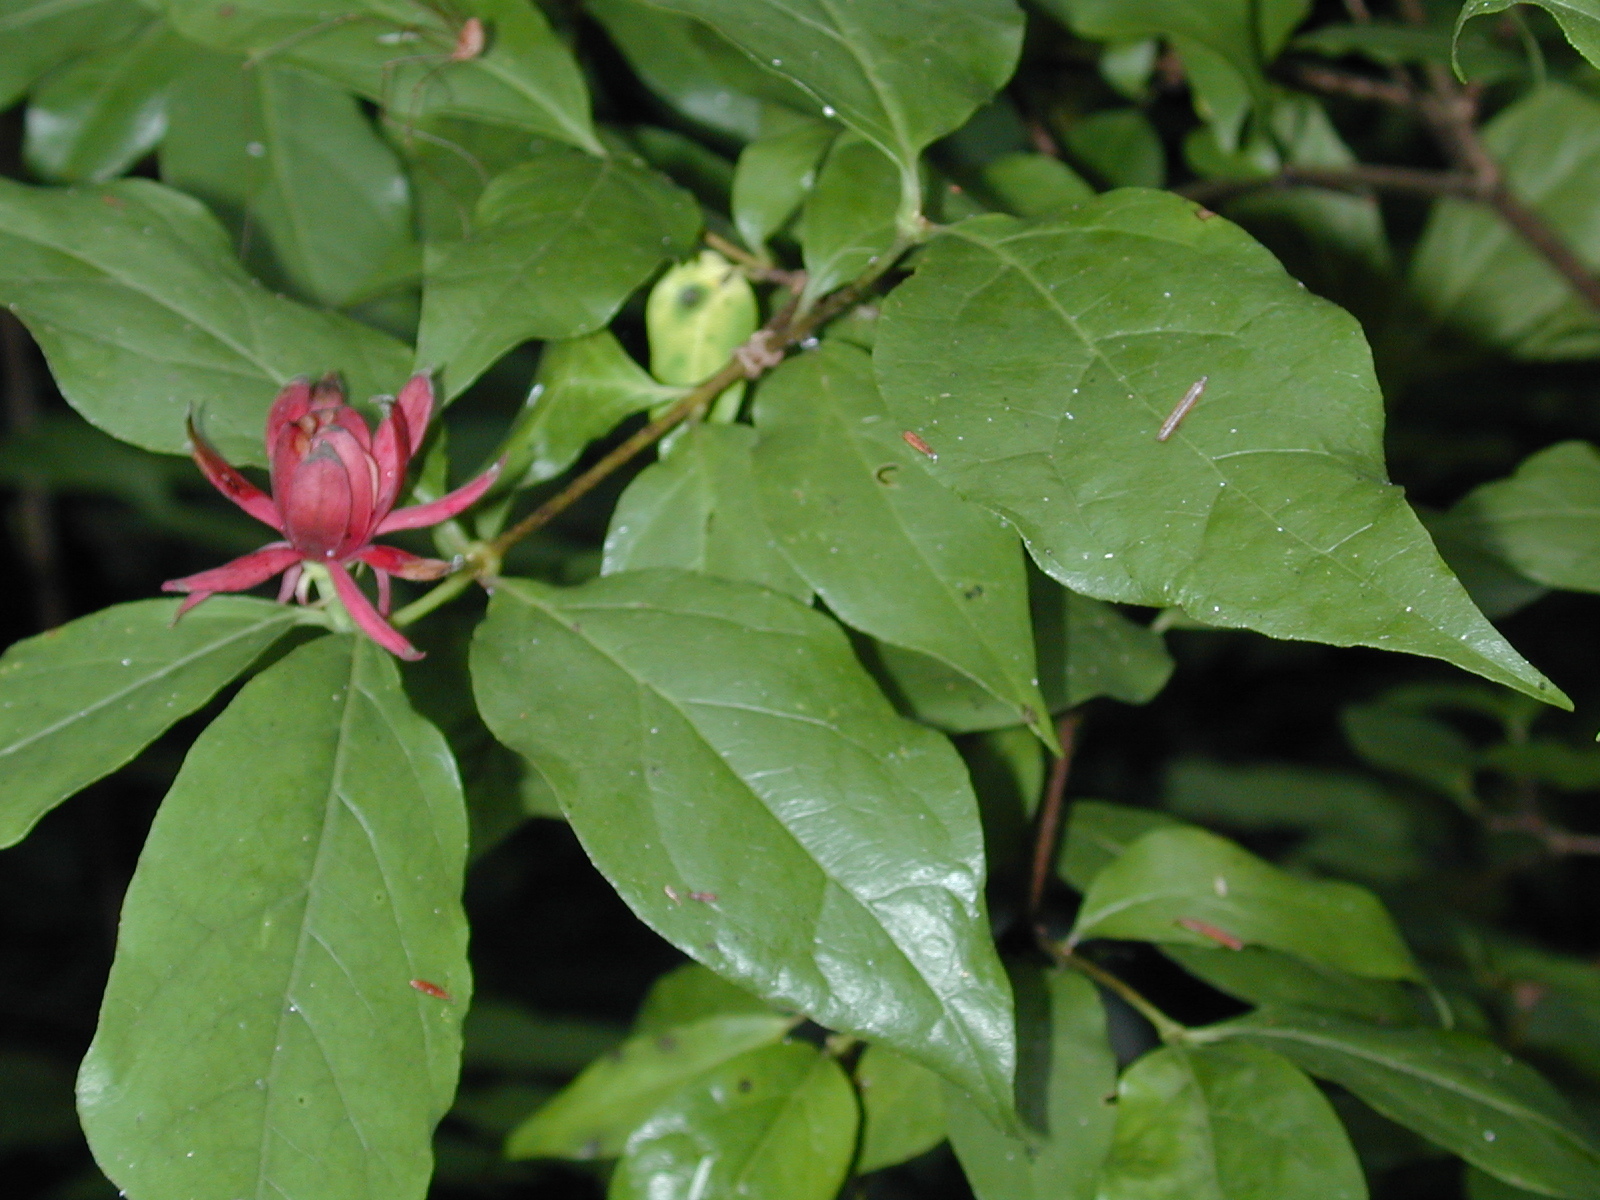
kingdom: Plantae
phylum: Tracheophyta
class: Magnoliopsida
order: Laurales
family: Calycanthaceae
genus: Calycanthus
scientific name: Calycanthus floridus
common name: Carolina-allspice
